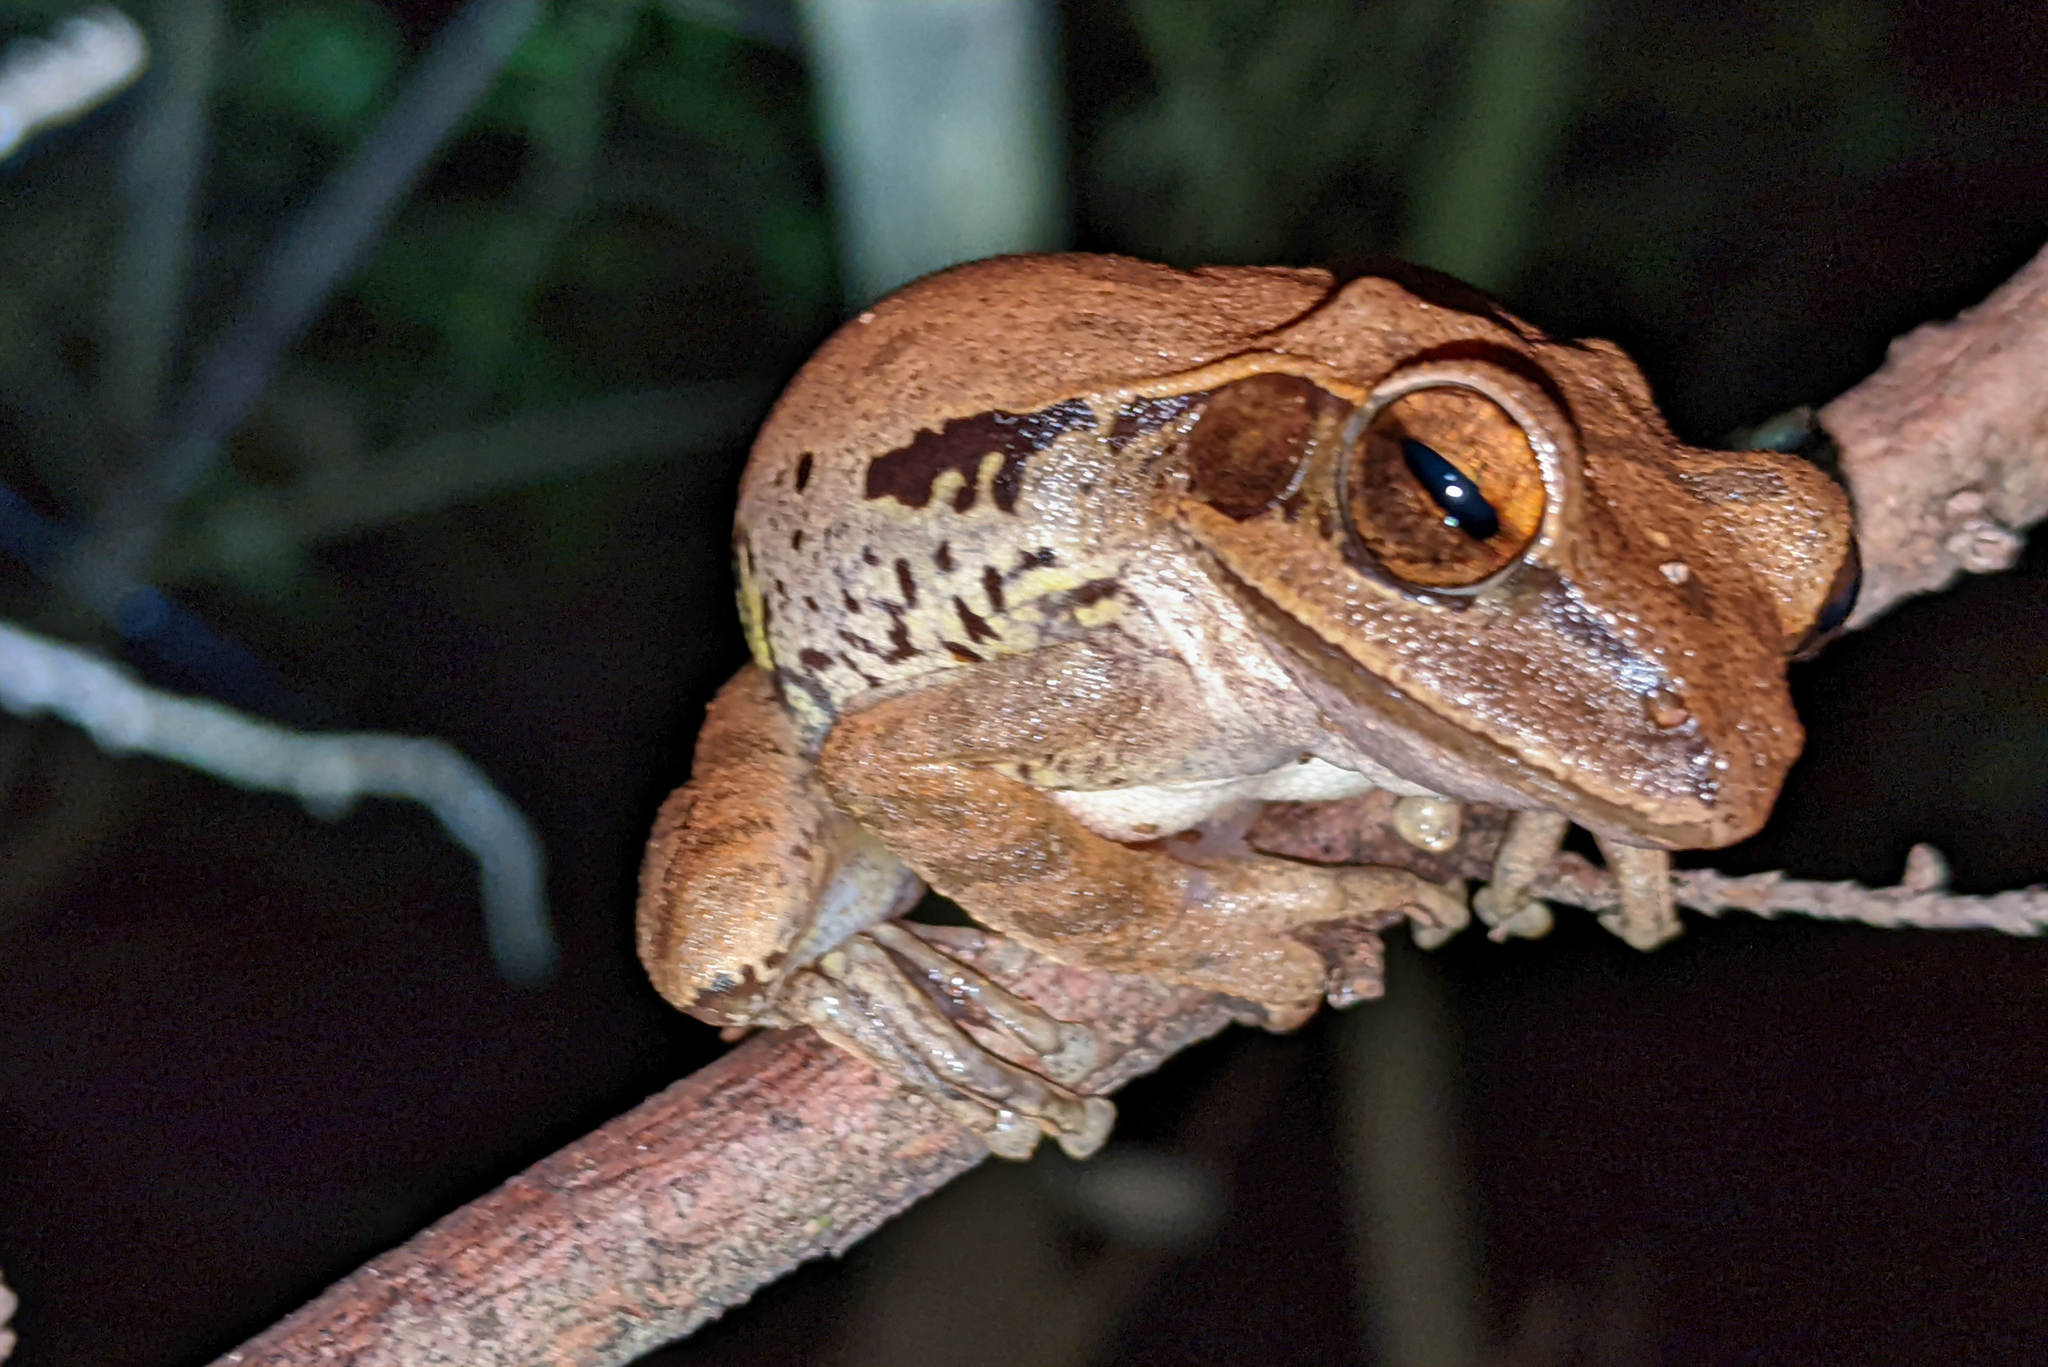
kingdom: Animalia
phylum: Chordata
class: Amphibia
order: Anura
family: Rhacophoridae
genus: Polypedates
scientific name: Polypedates maculatus
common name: Himalayan tree frog
